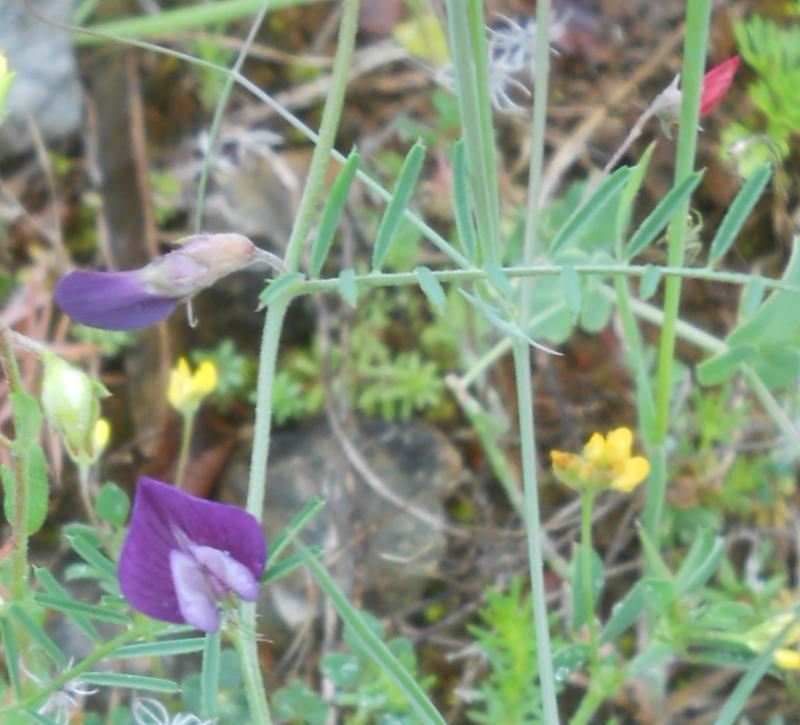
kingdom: Plantae
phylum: Tracheophyta
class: Magnoliopsida
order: Fabales
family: Fabaceae
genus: Vicia
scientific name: Vicia peregrina
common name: Broad-pod vetch
